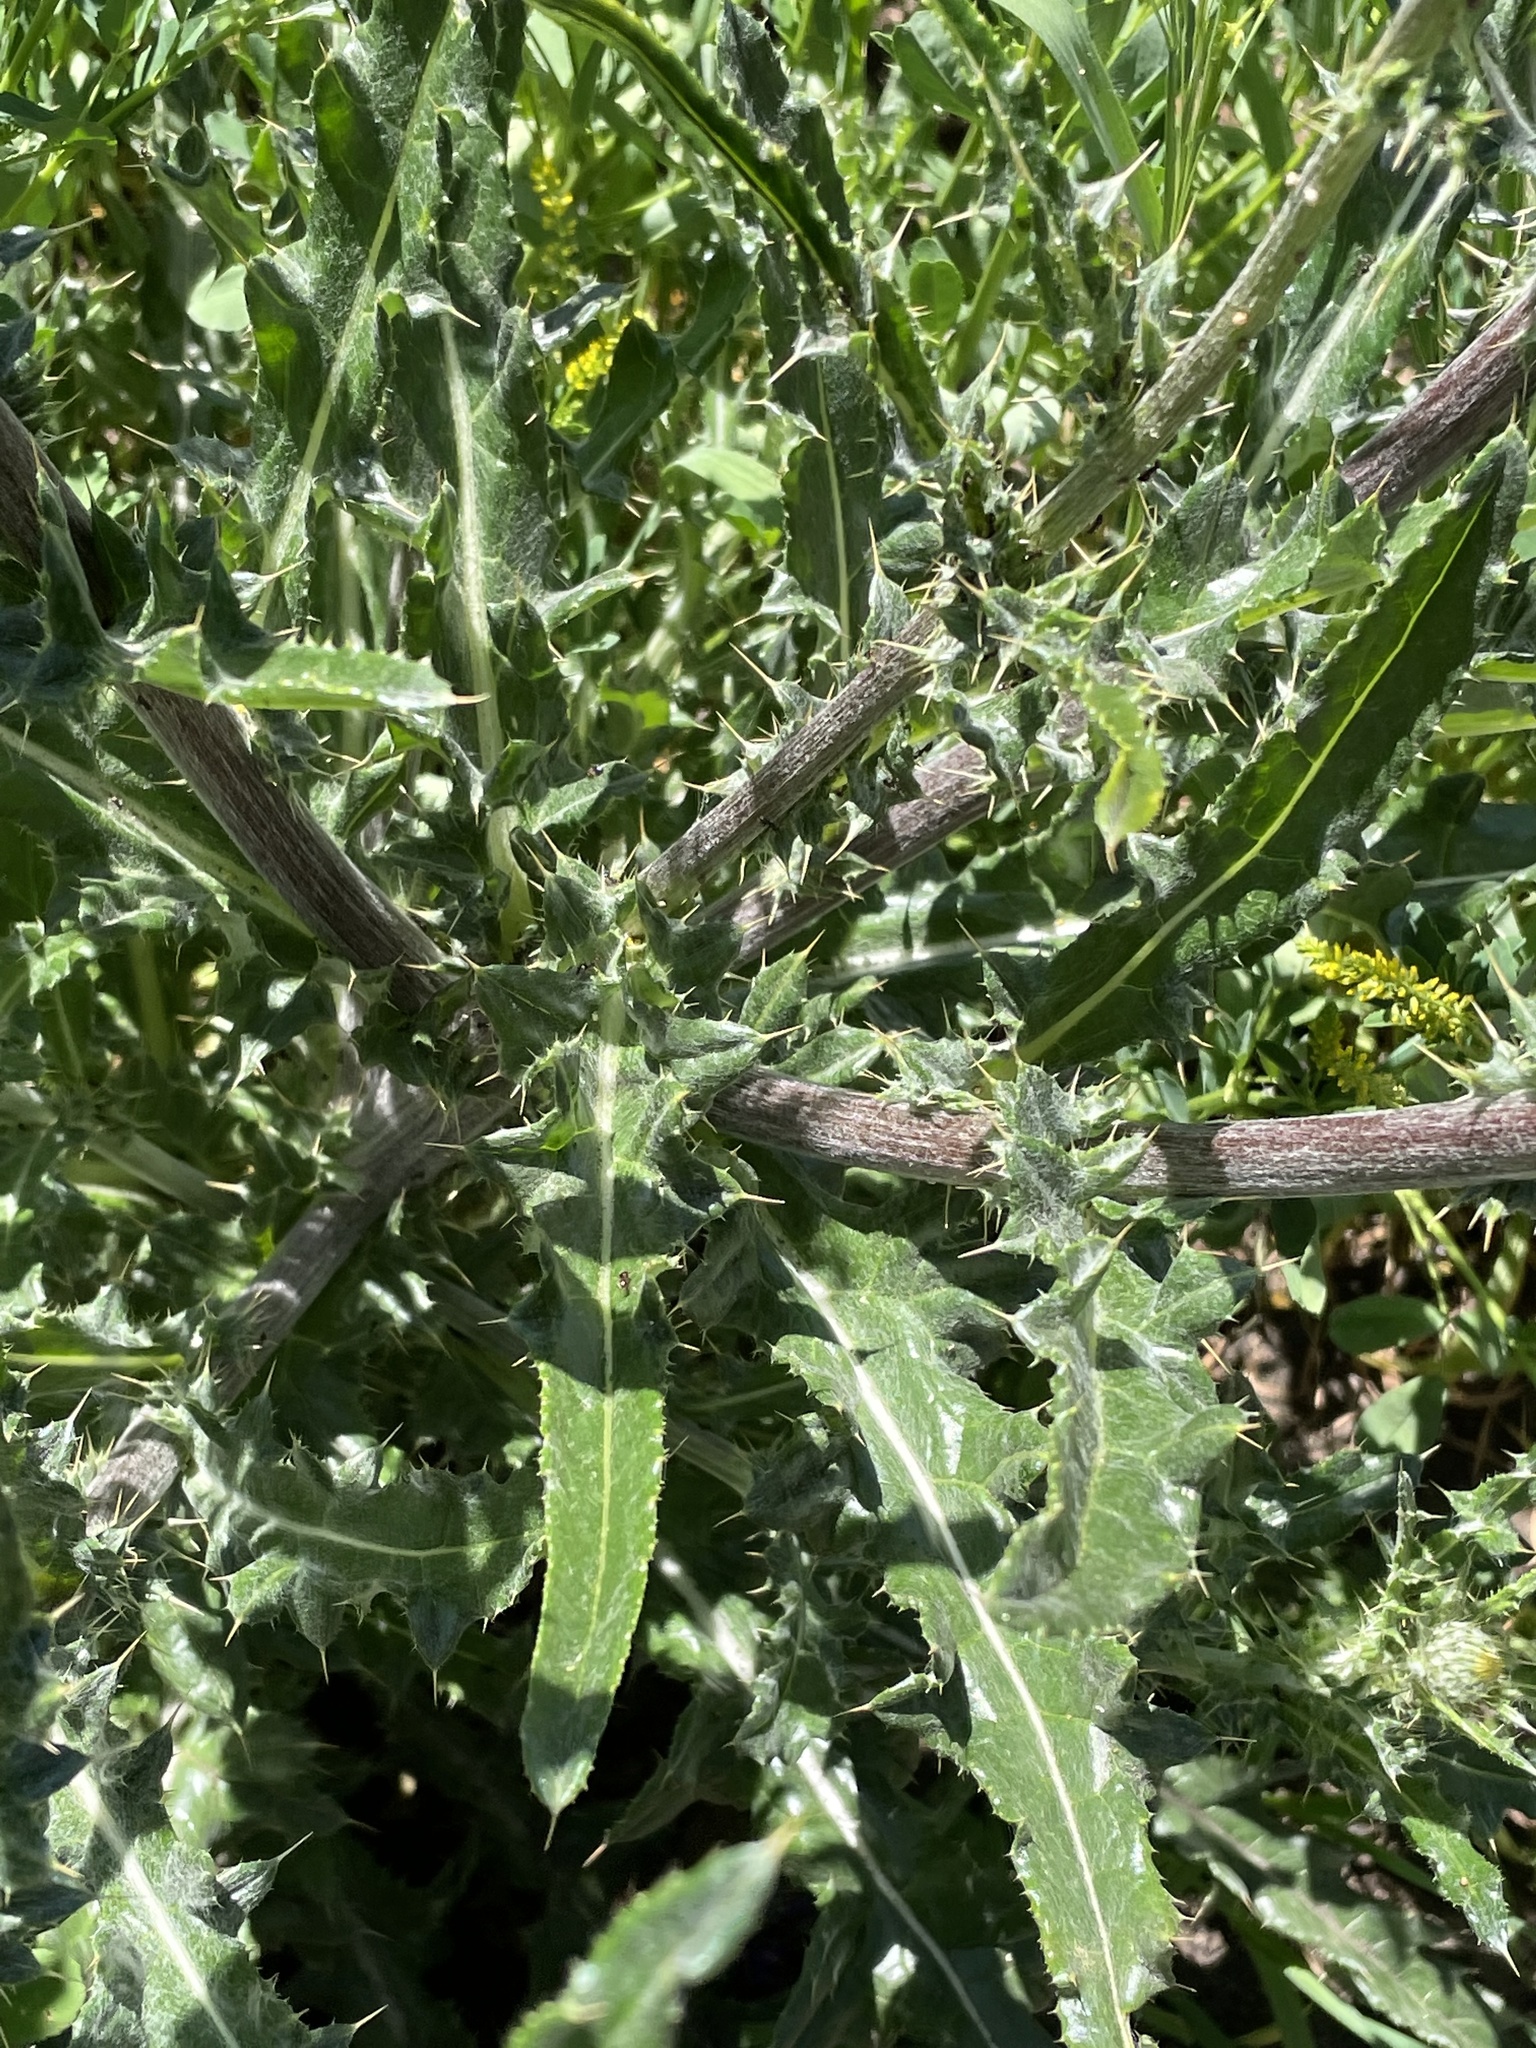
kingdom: Plantae
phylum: Tracheophyta
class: Magnoliopsida
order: Asterales
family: Asteraceae
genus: Cirsium
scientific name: Cirsium occidentale
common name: Western thistle
